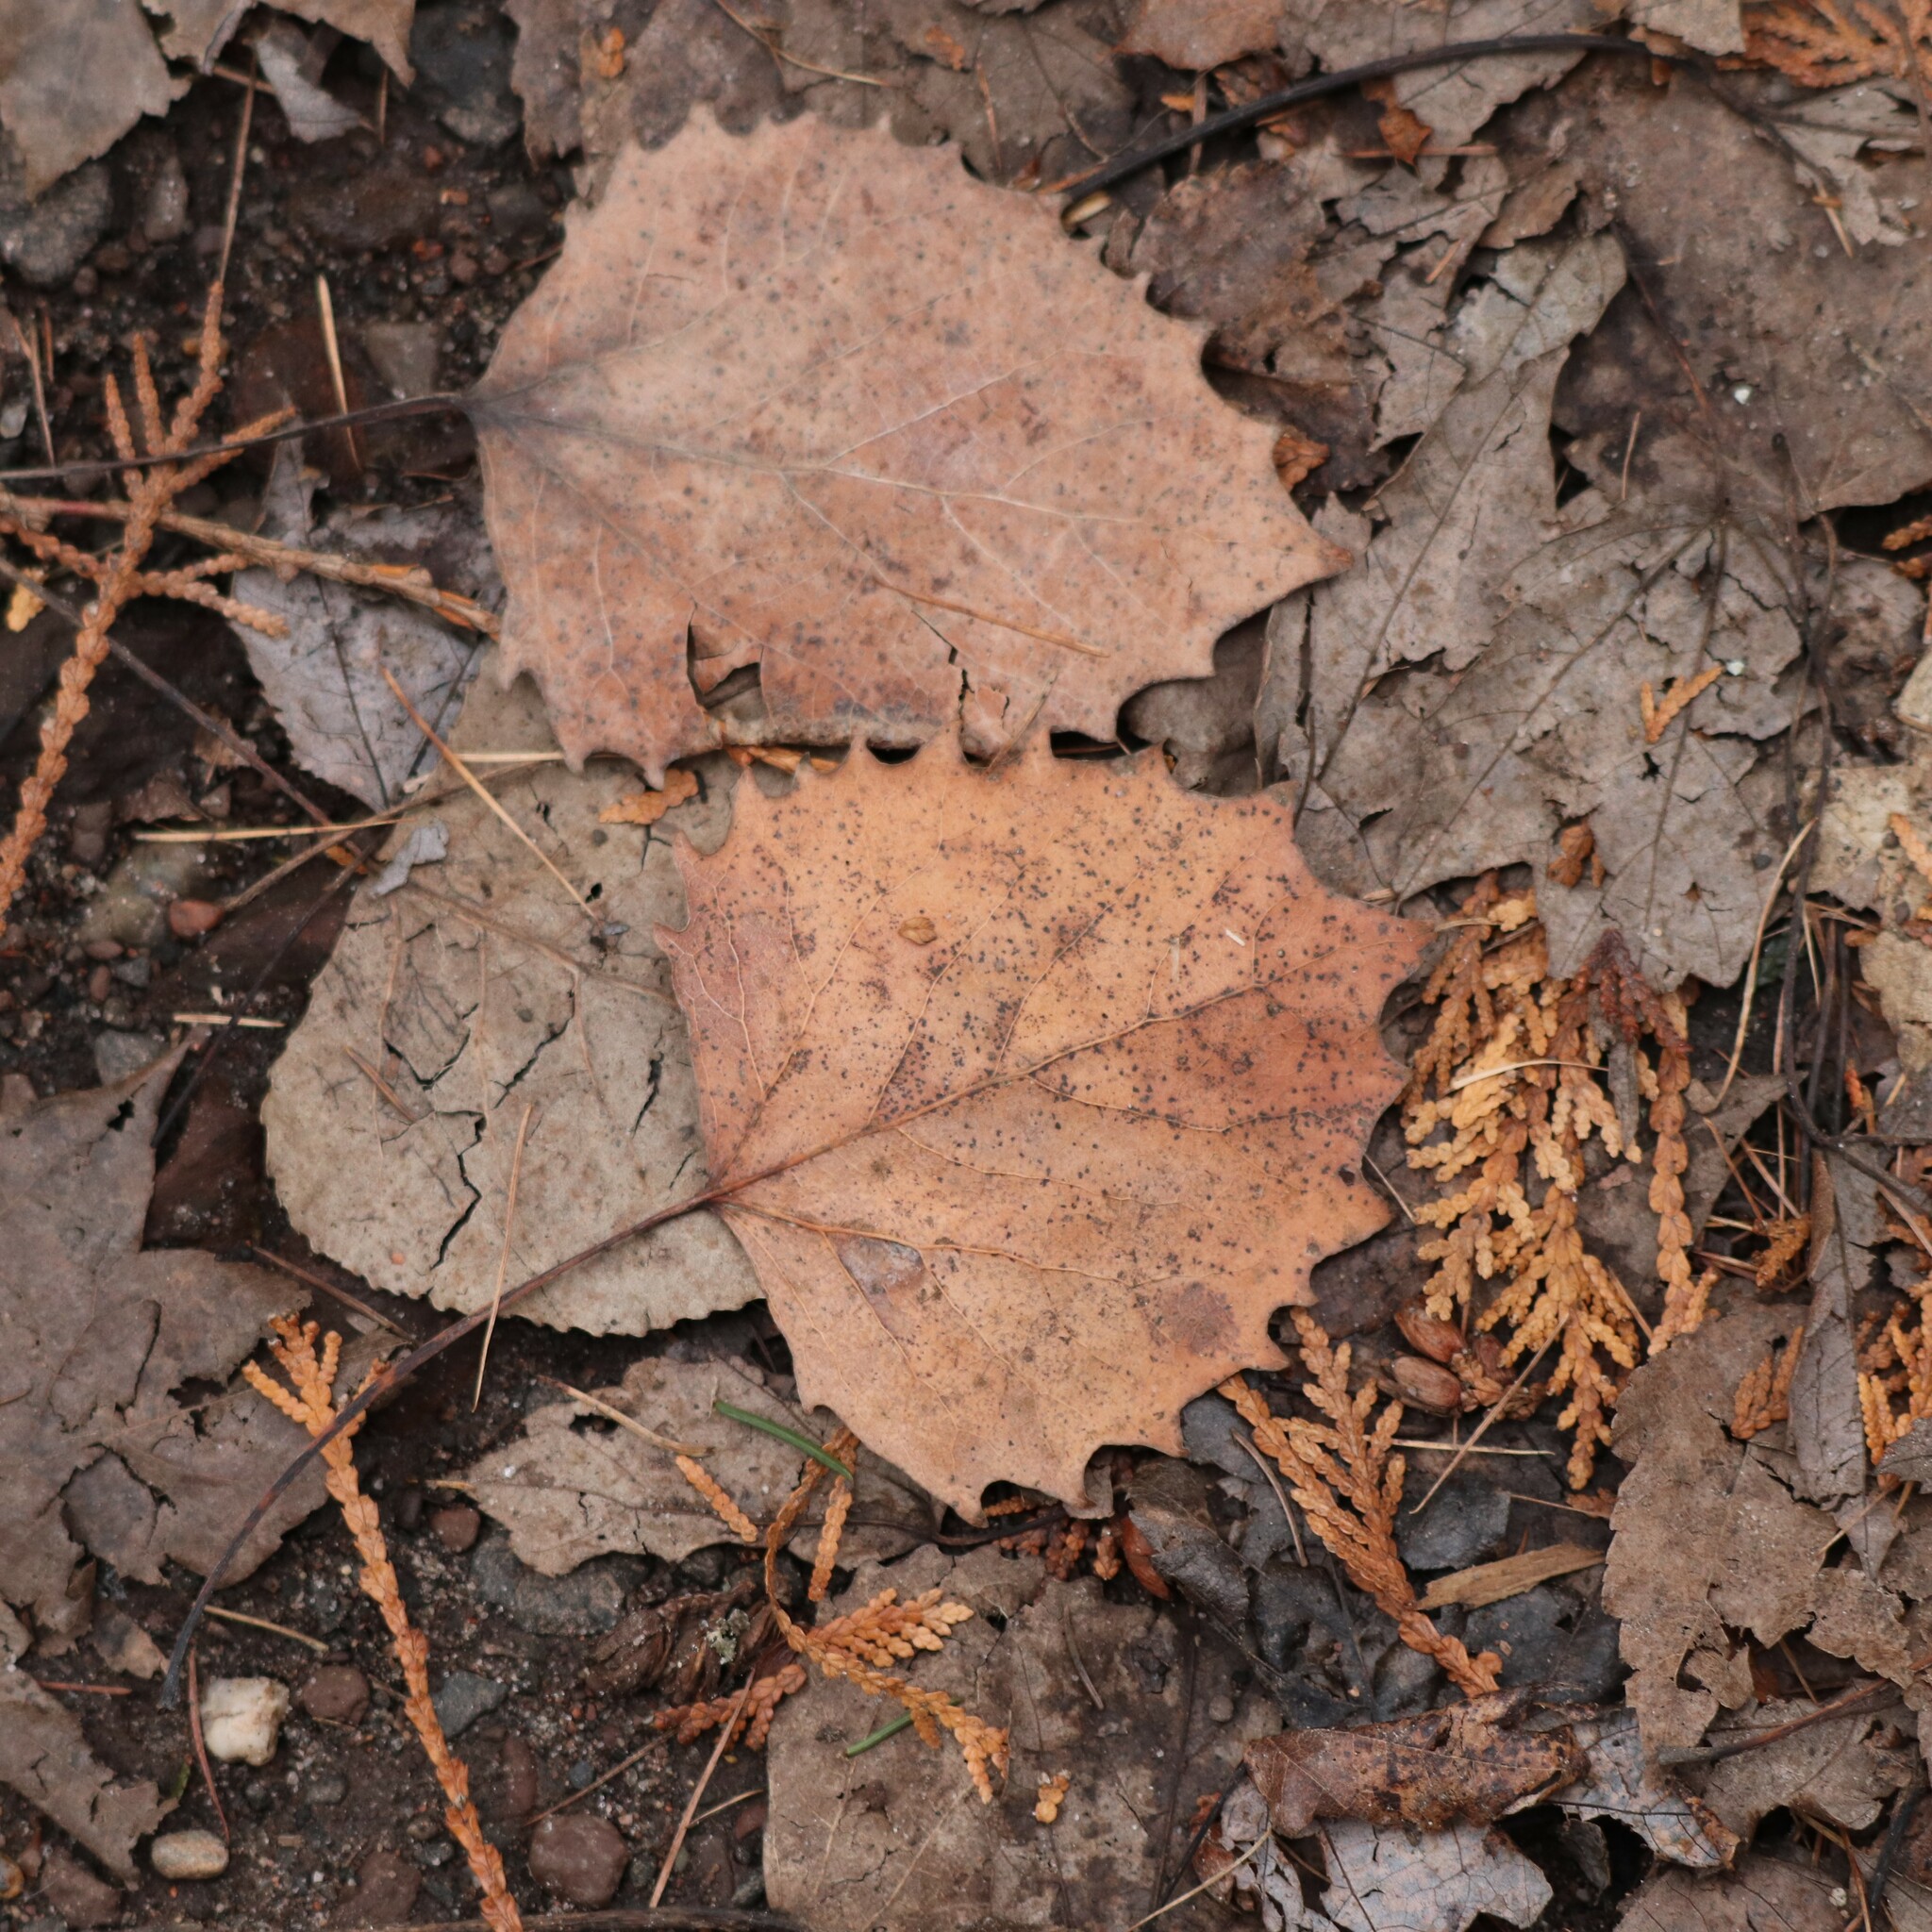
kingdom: Plantae
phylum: Tracheophyta
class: Magnoliopsida
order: Malpighiales
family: Salicaceae
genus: Populus
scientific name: Populus grandidentata
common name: Bigtooth aspen
